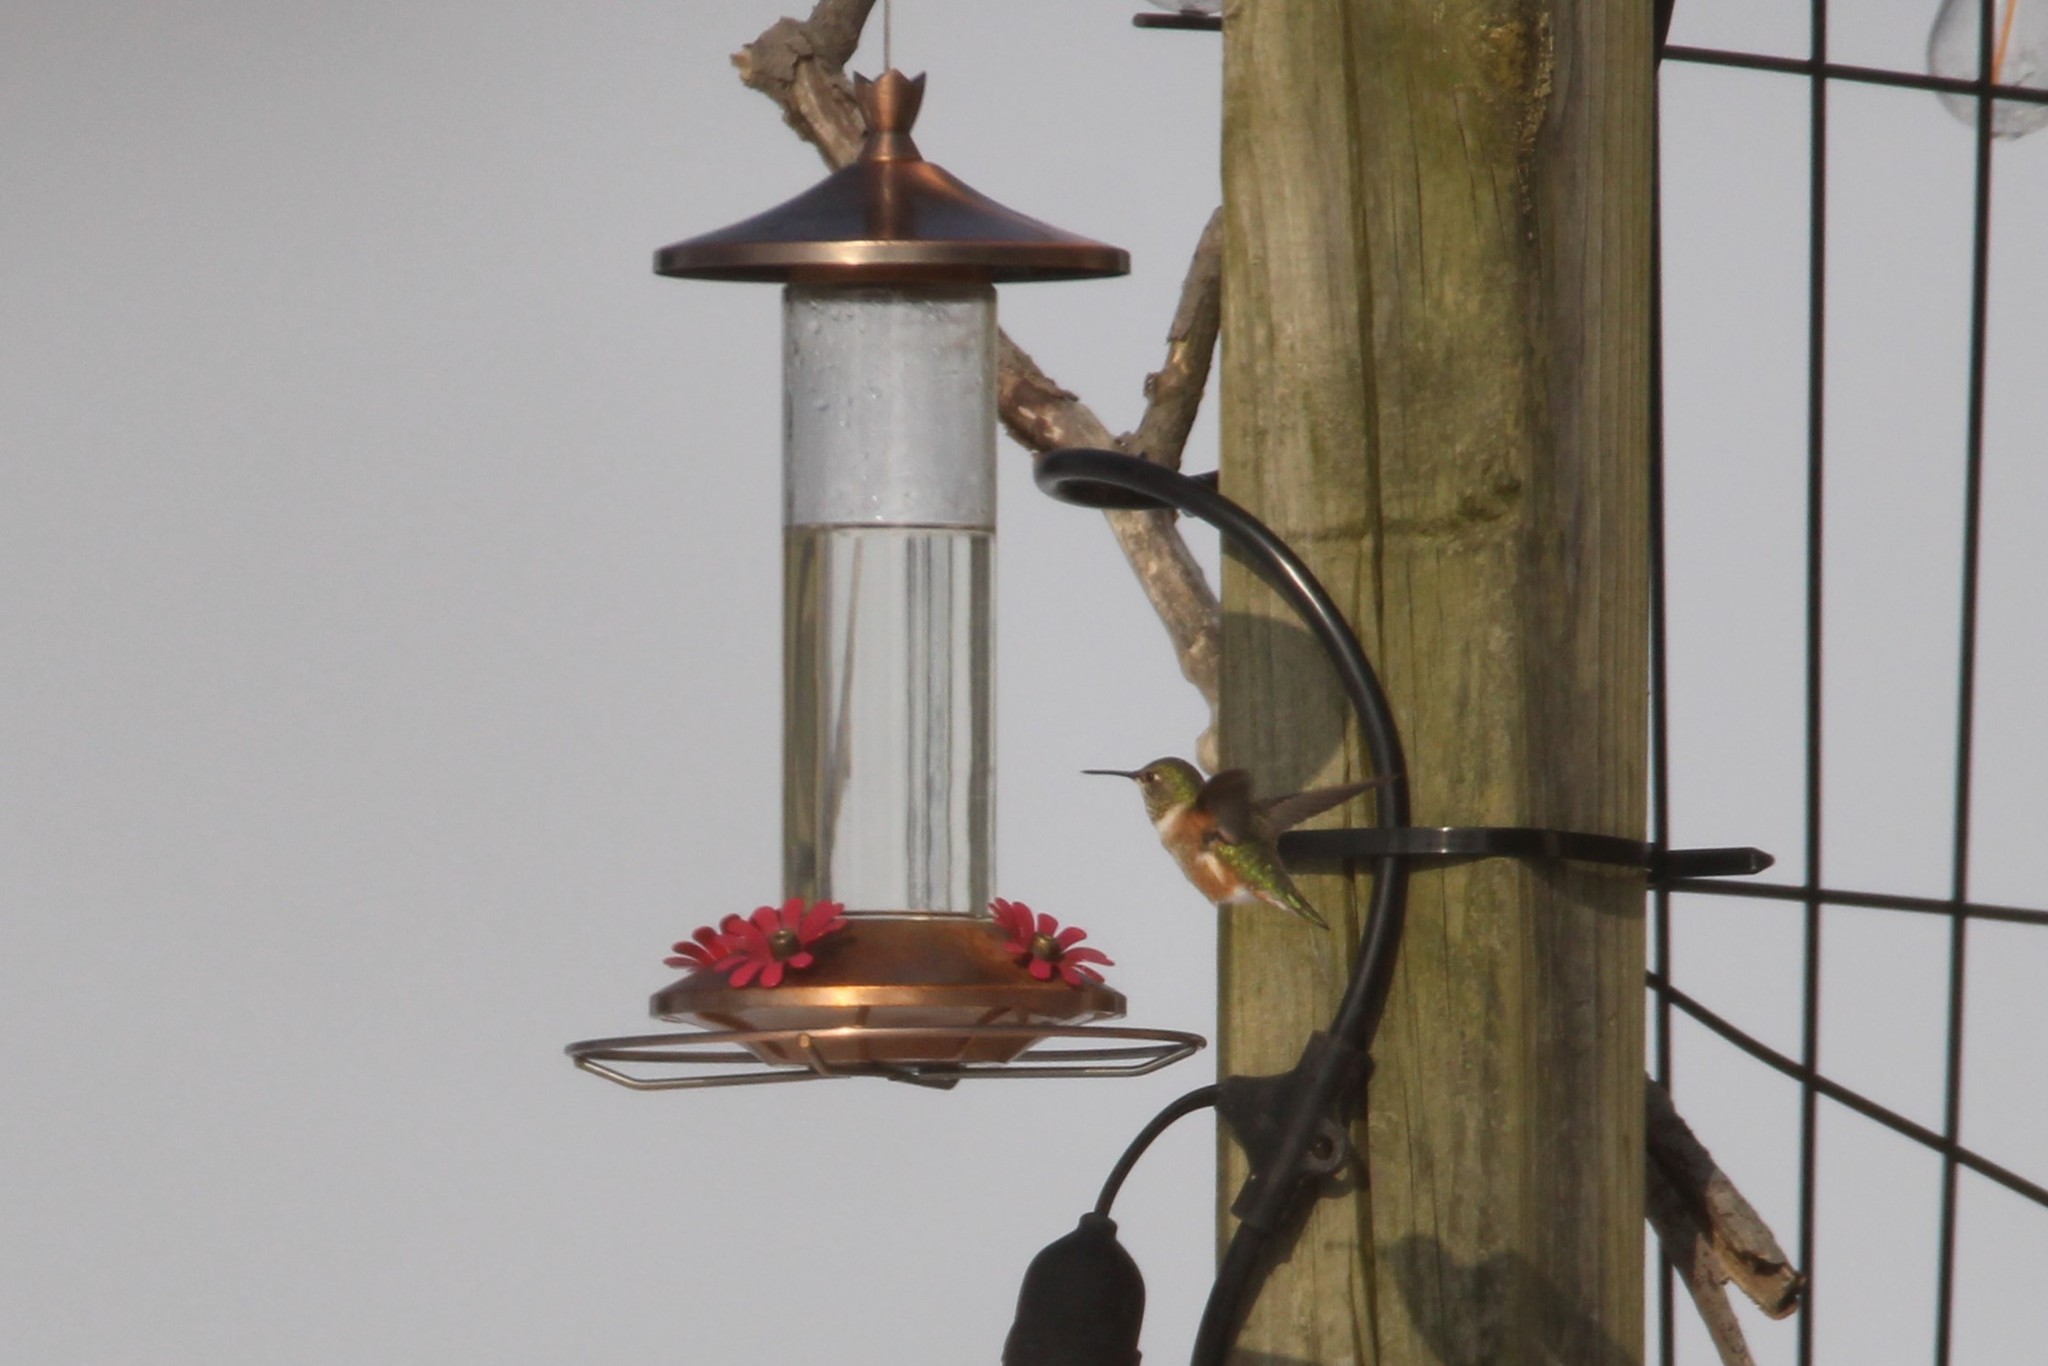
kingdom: Animalia
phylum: Chordata
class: Aves
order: Apodiformes
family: Trochilidae
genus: Selasphorus
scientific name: Selasphorus rufus
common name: Rufous hummingbird
